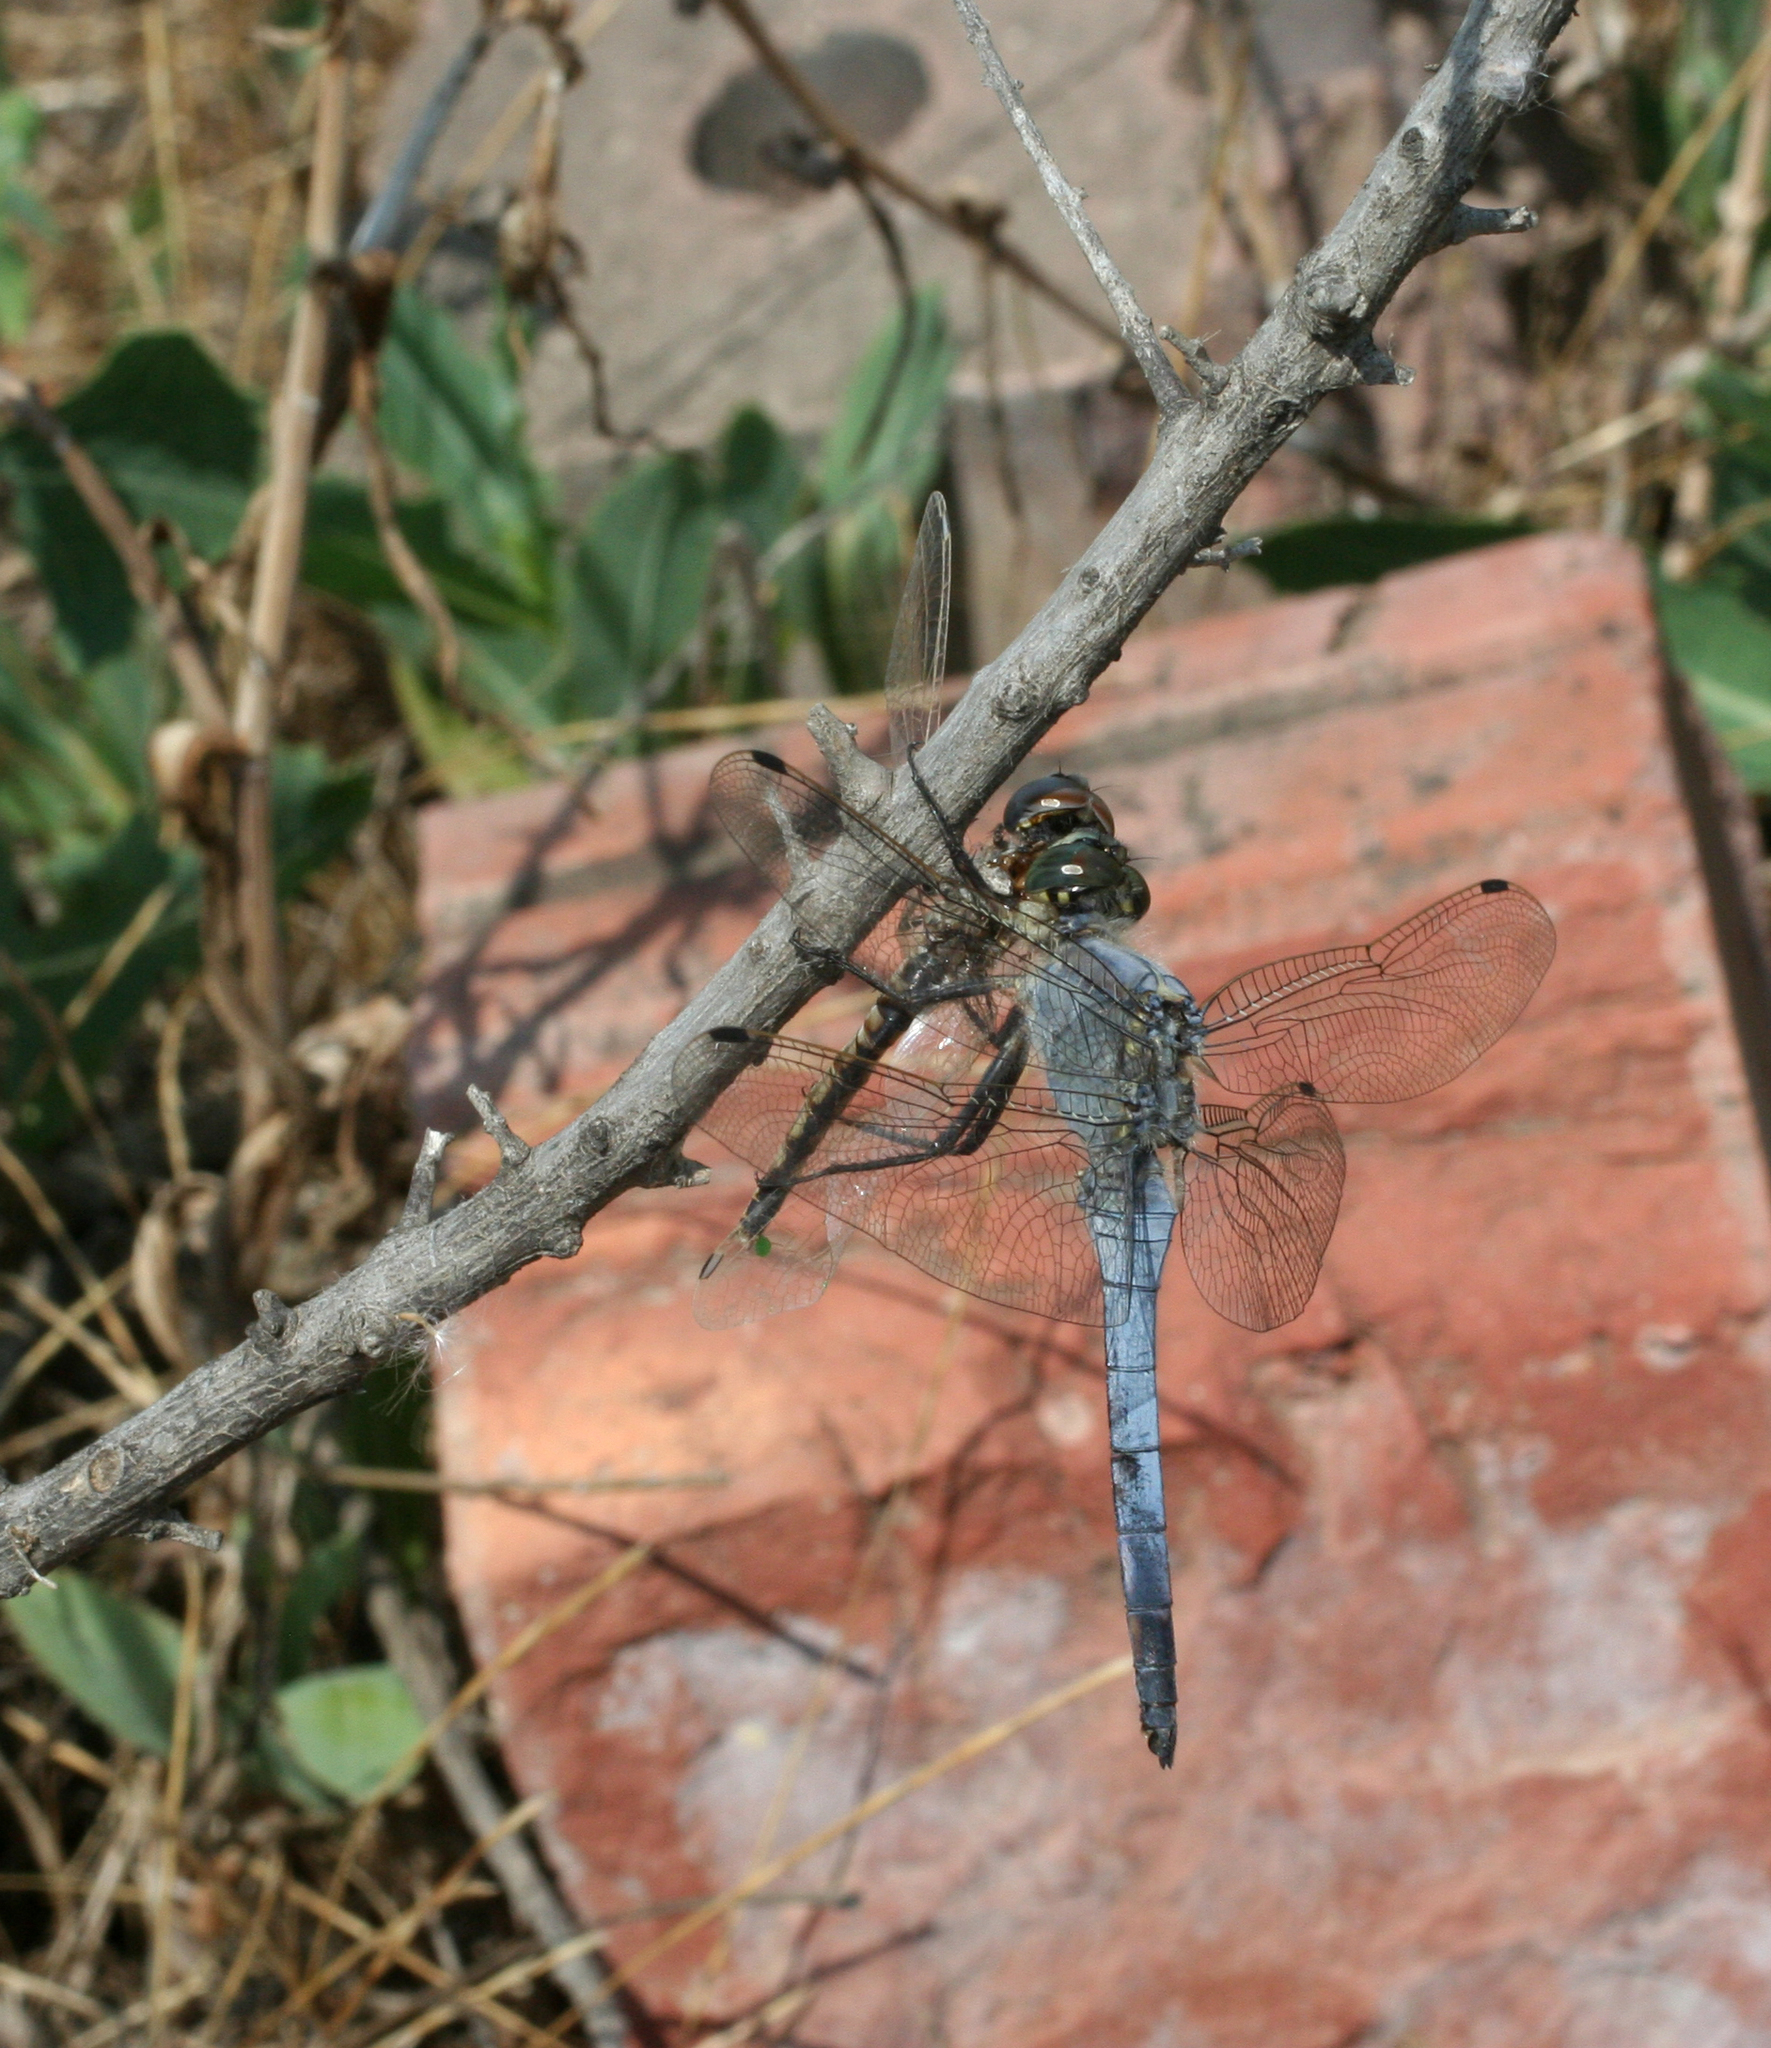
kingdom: Animalia
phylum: Arthropoda
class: Insecta
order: Odonata
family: Libellulidae
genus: Orthetrum
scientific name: Orthetrum cancellatum
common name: Black-tailed skimmer
